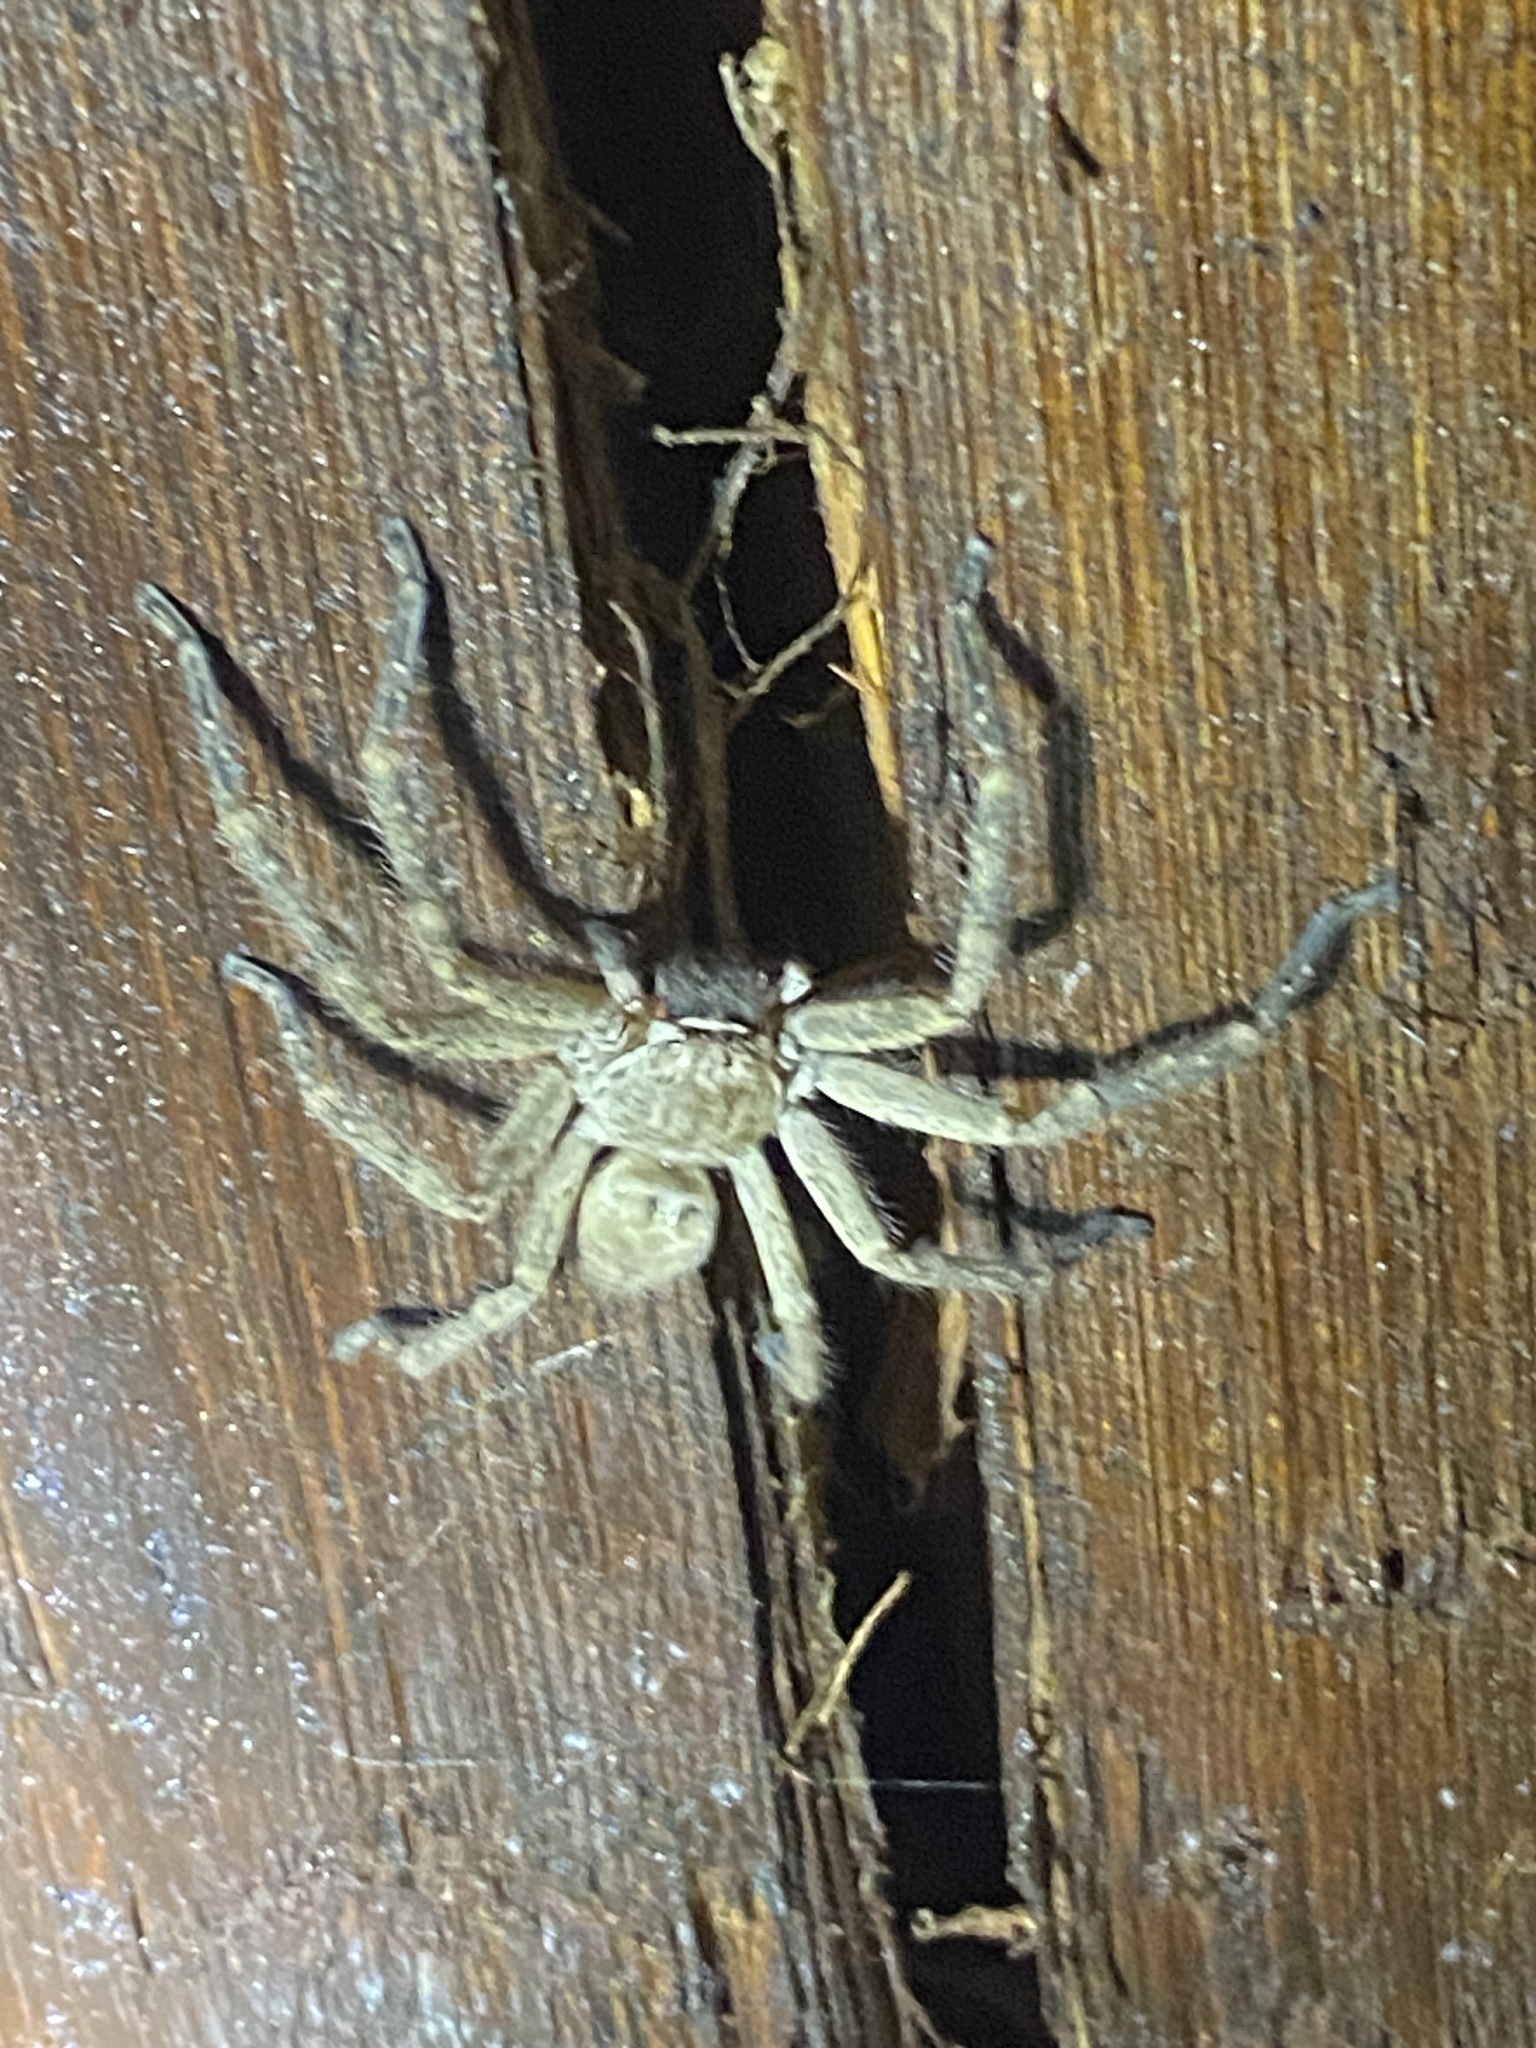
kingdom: Animalia
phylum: Arthropoda
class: Arachnida
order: Araneae
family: Sparassidae
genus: Polybetes
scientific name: Polybetes rapidus
